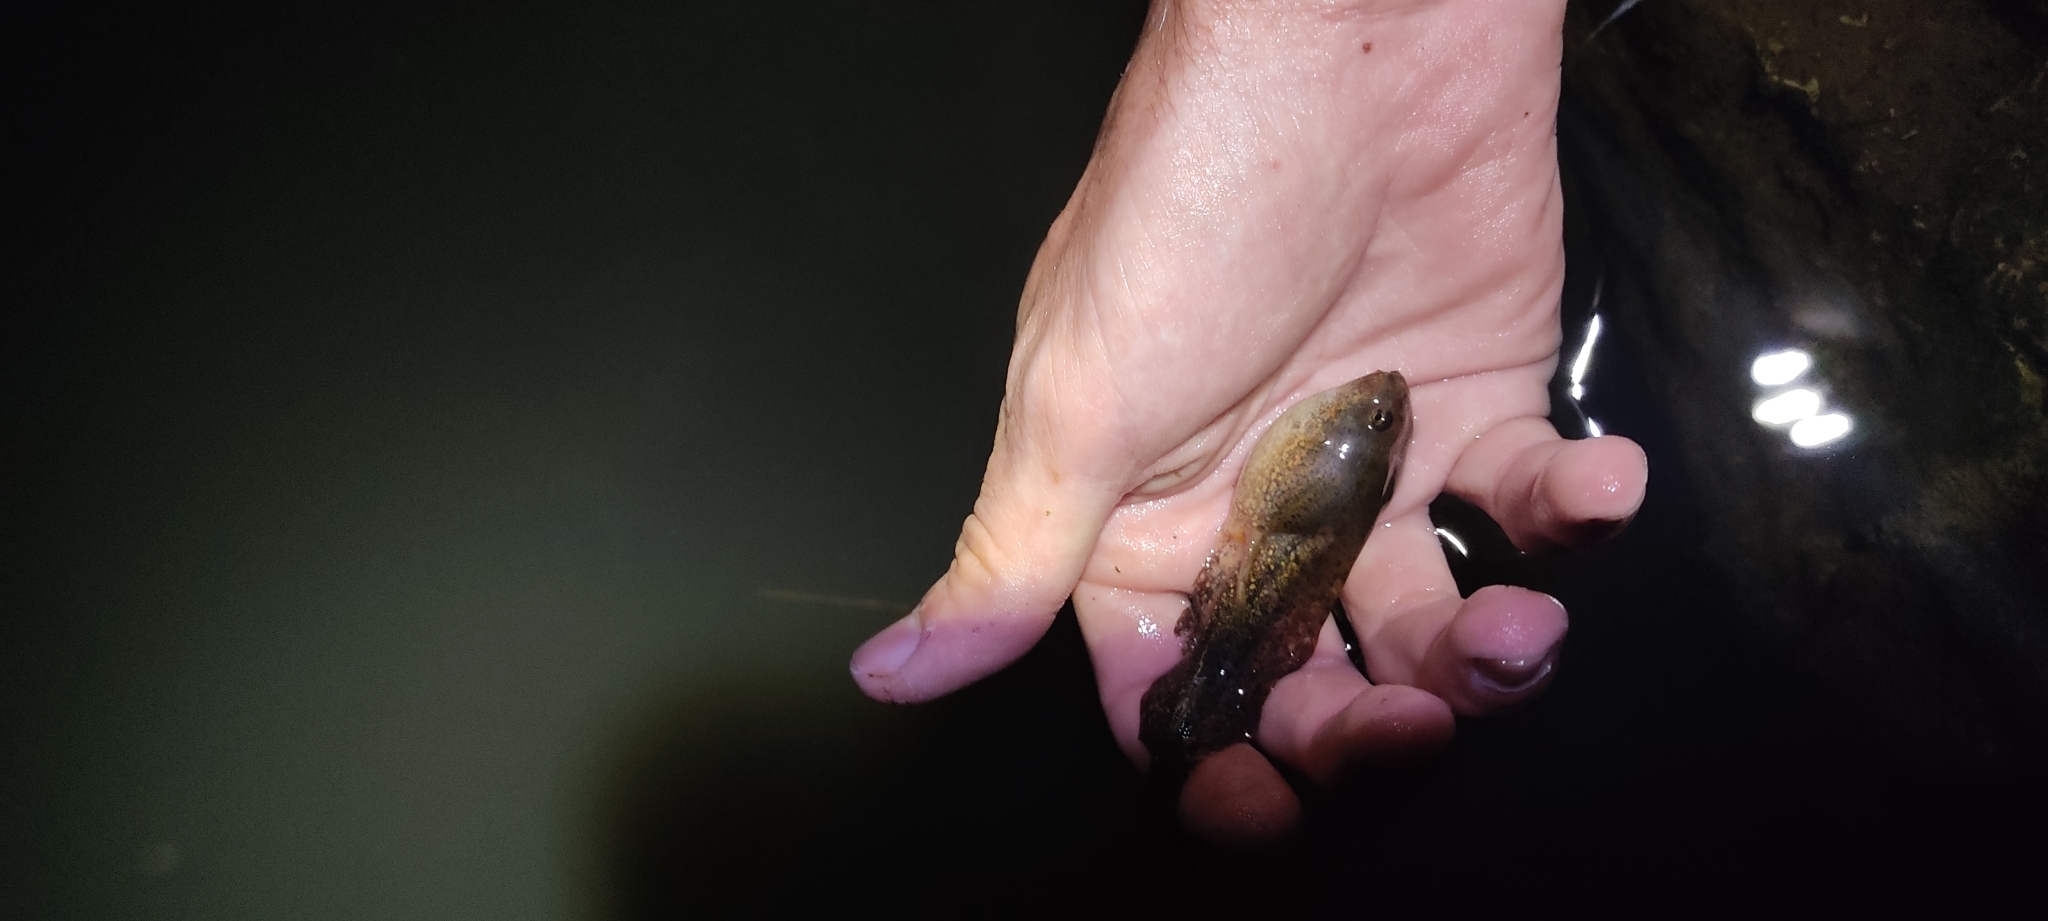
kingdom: Animalia
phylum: Chordata
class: Amphibia
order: Anura
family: Alytidae
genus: Alytes
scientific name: Alytes obstetricans
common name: Midwife toad
